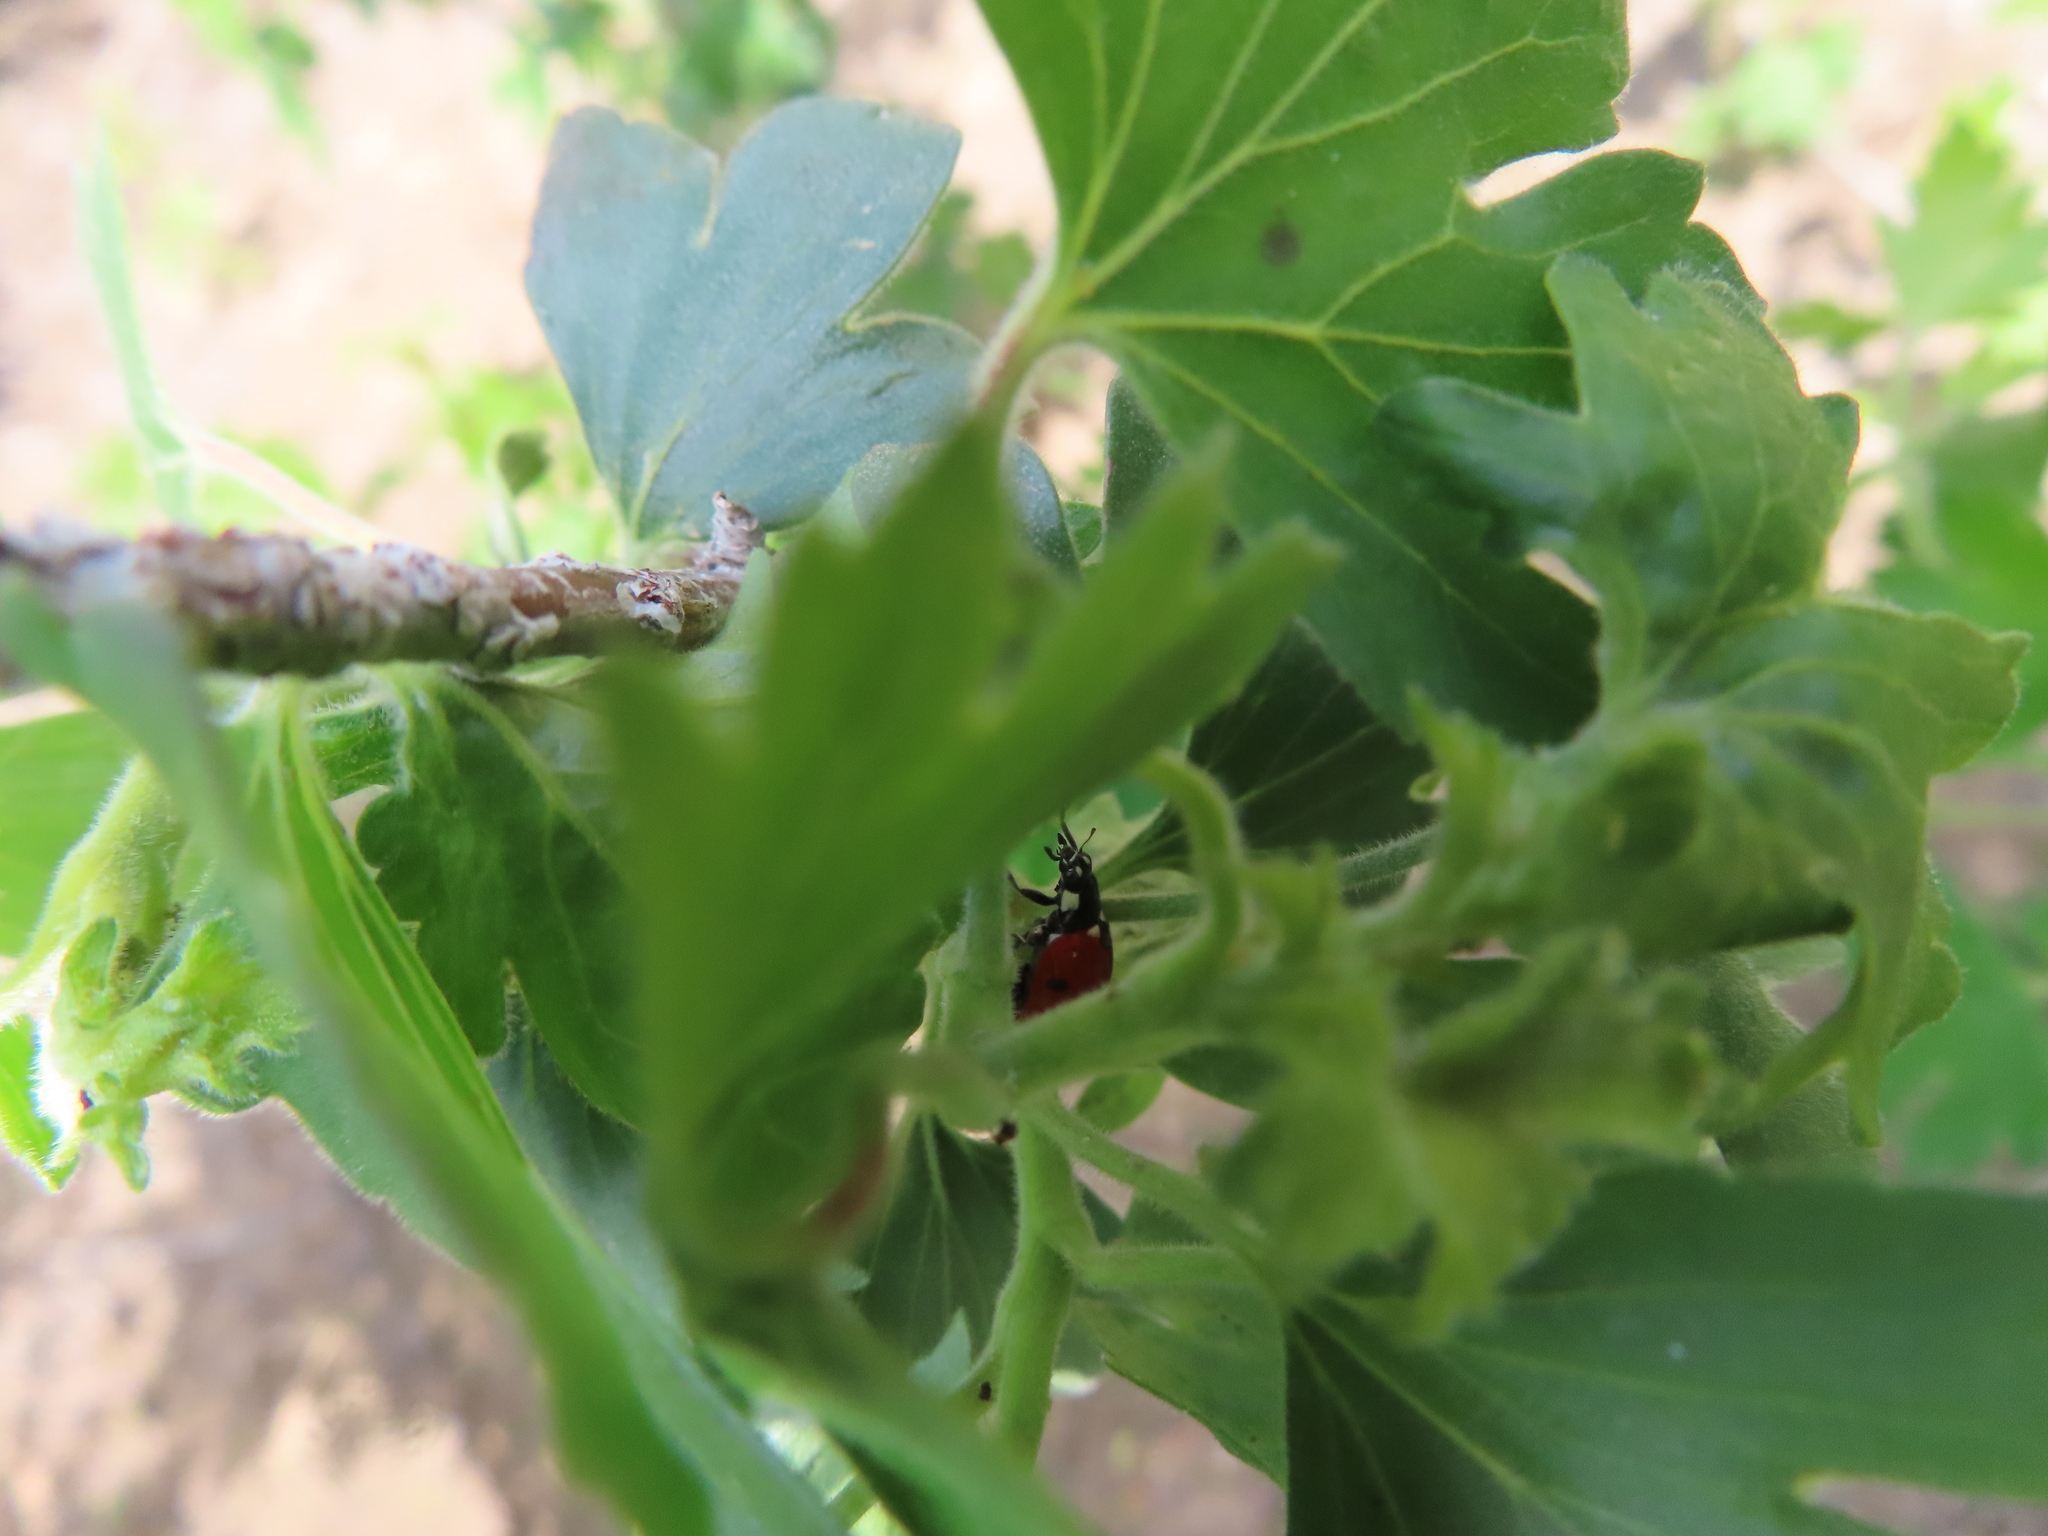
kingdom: Animalia
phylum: Arthropoda
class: Insecta
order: Coleoptera
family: Coccinellidae
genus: Coccinella
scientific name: Coccinella septempunctata
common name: Sevenspotted lady beetle
